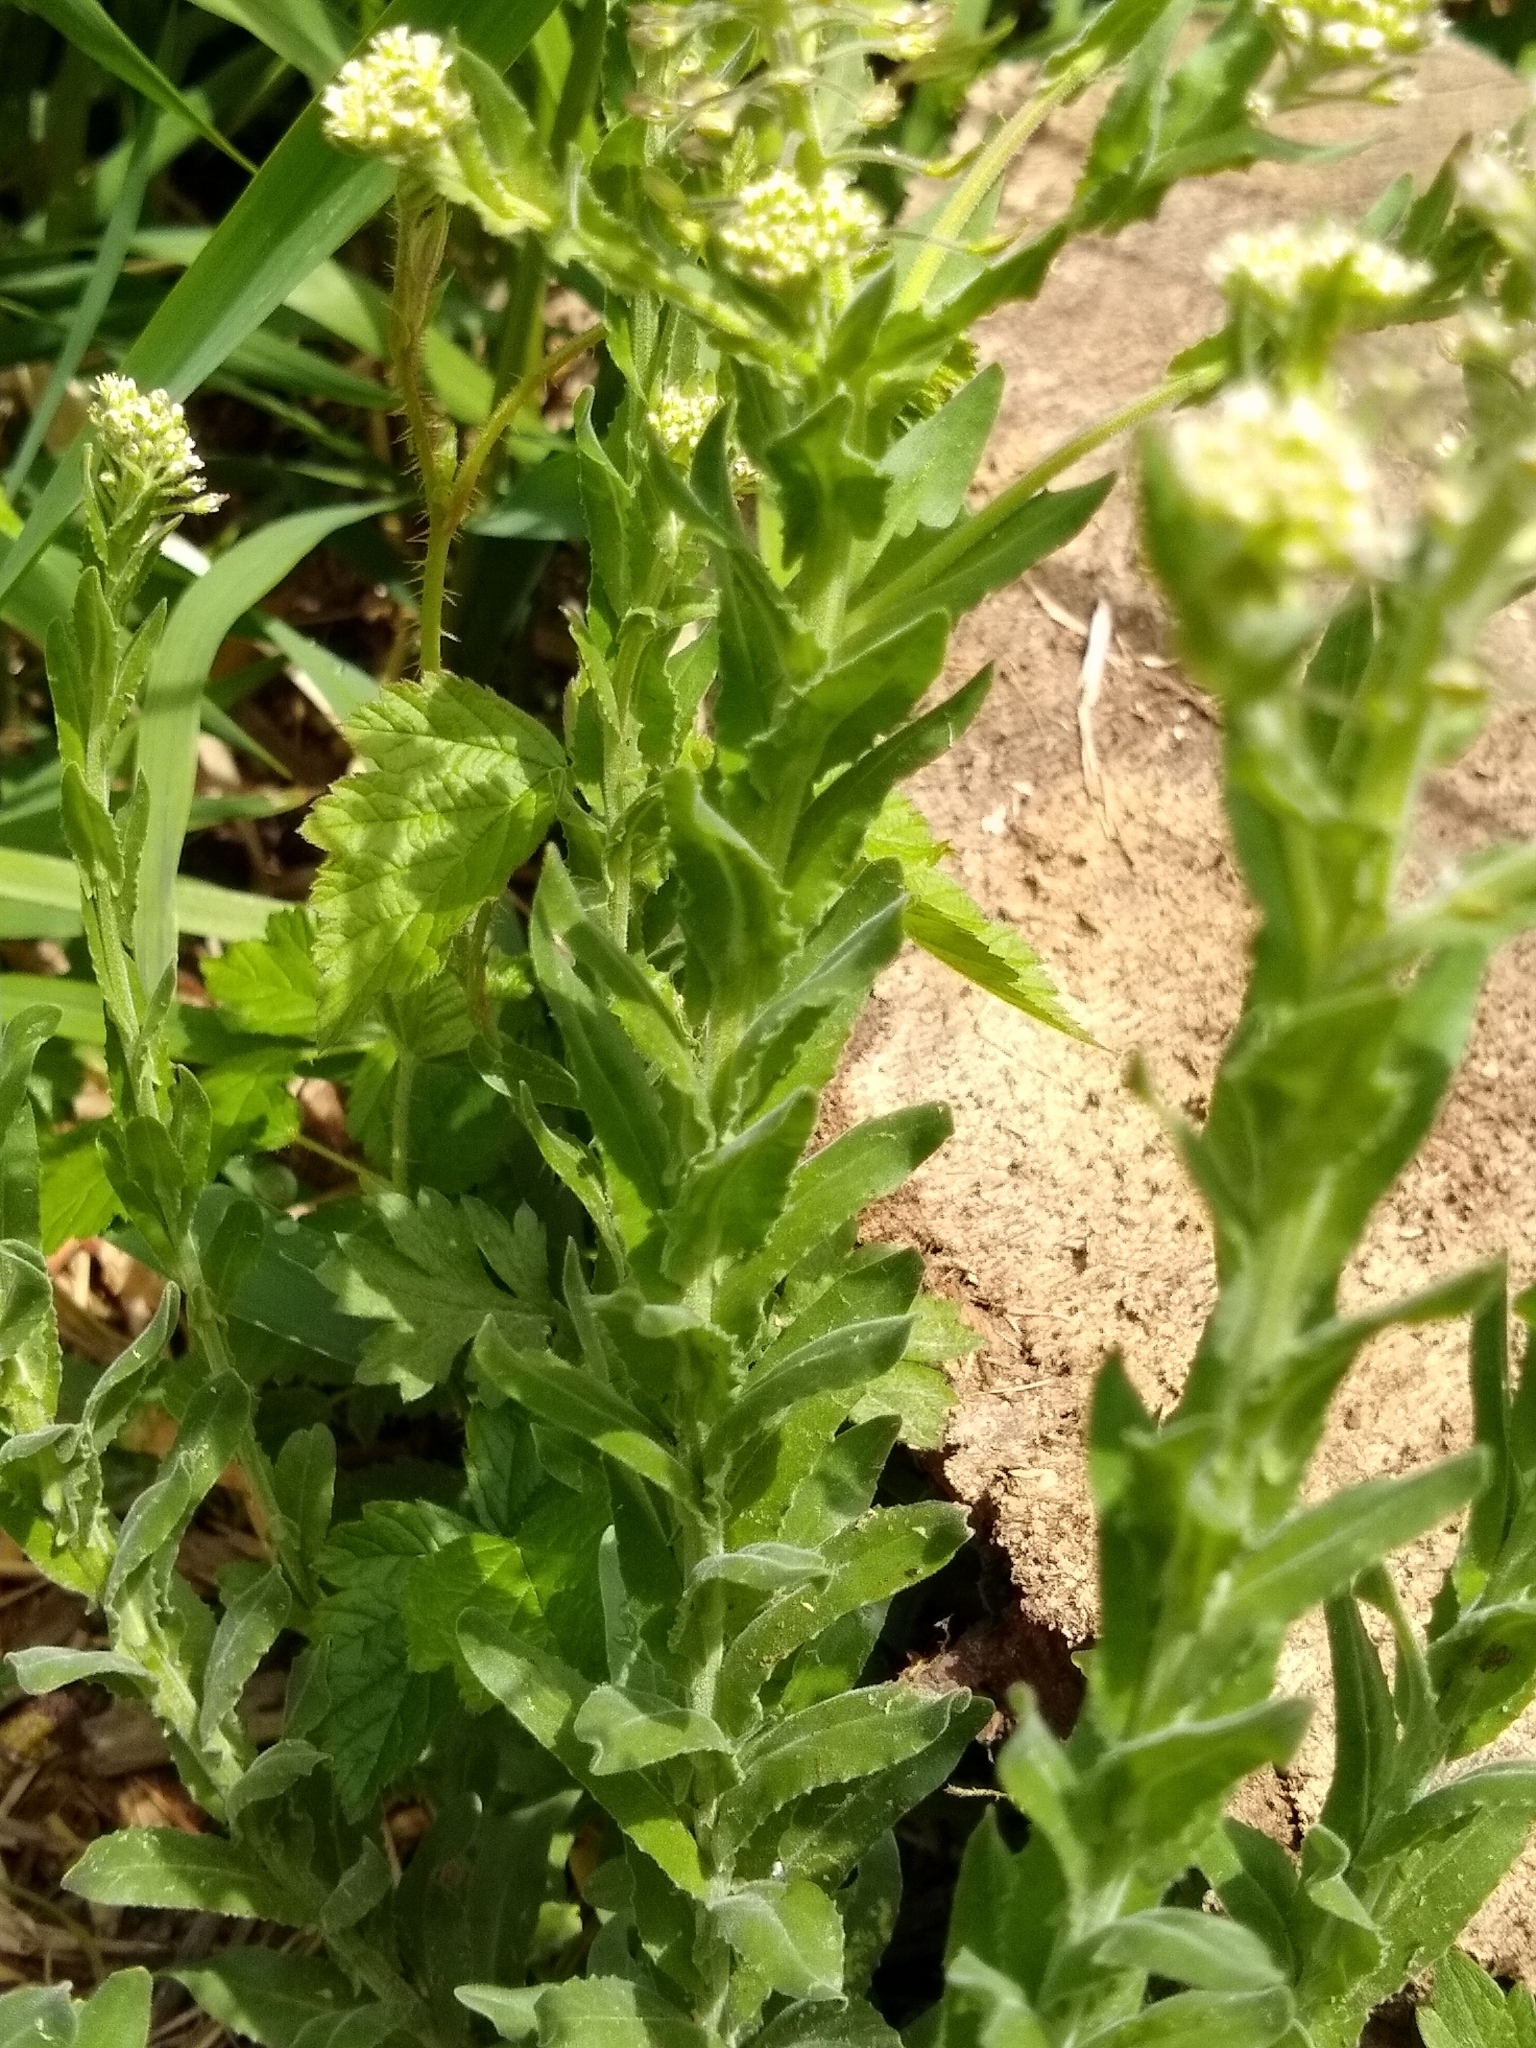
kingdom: Plantae
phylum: Tracheophyta
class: Magnoliopsida
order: Brassicales
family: Brassicaceae
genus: Lepidium
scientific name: Lepidium campestre
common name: Field pepperwort
